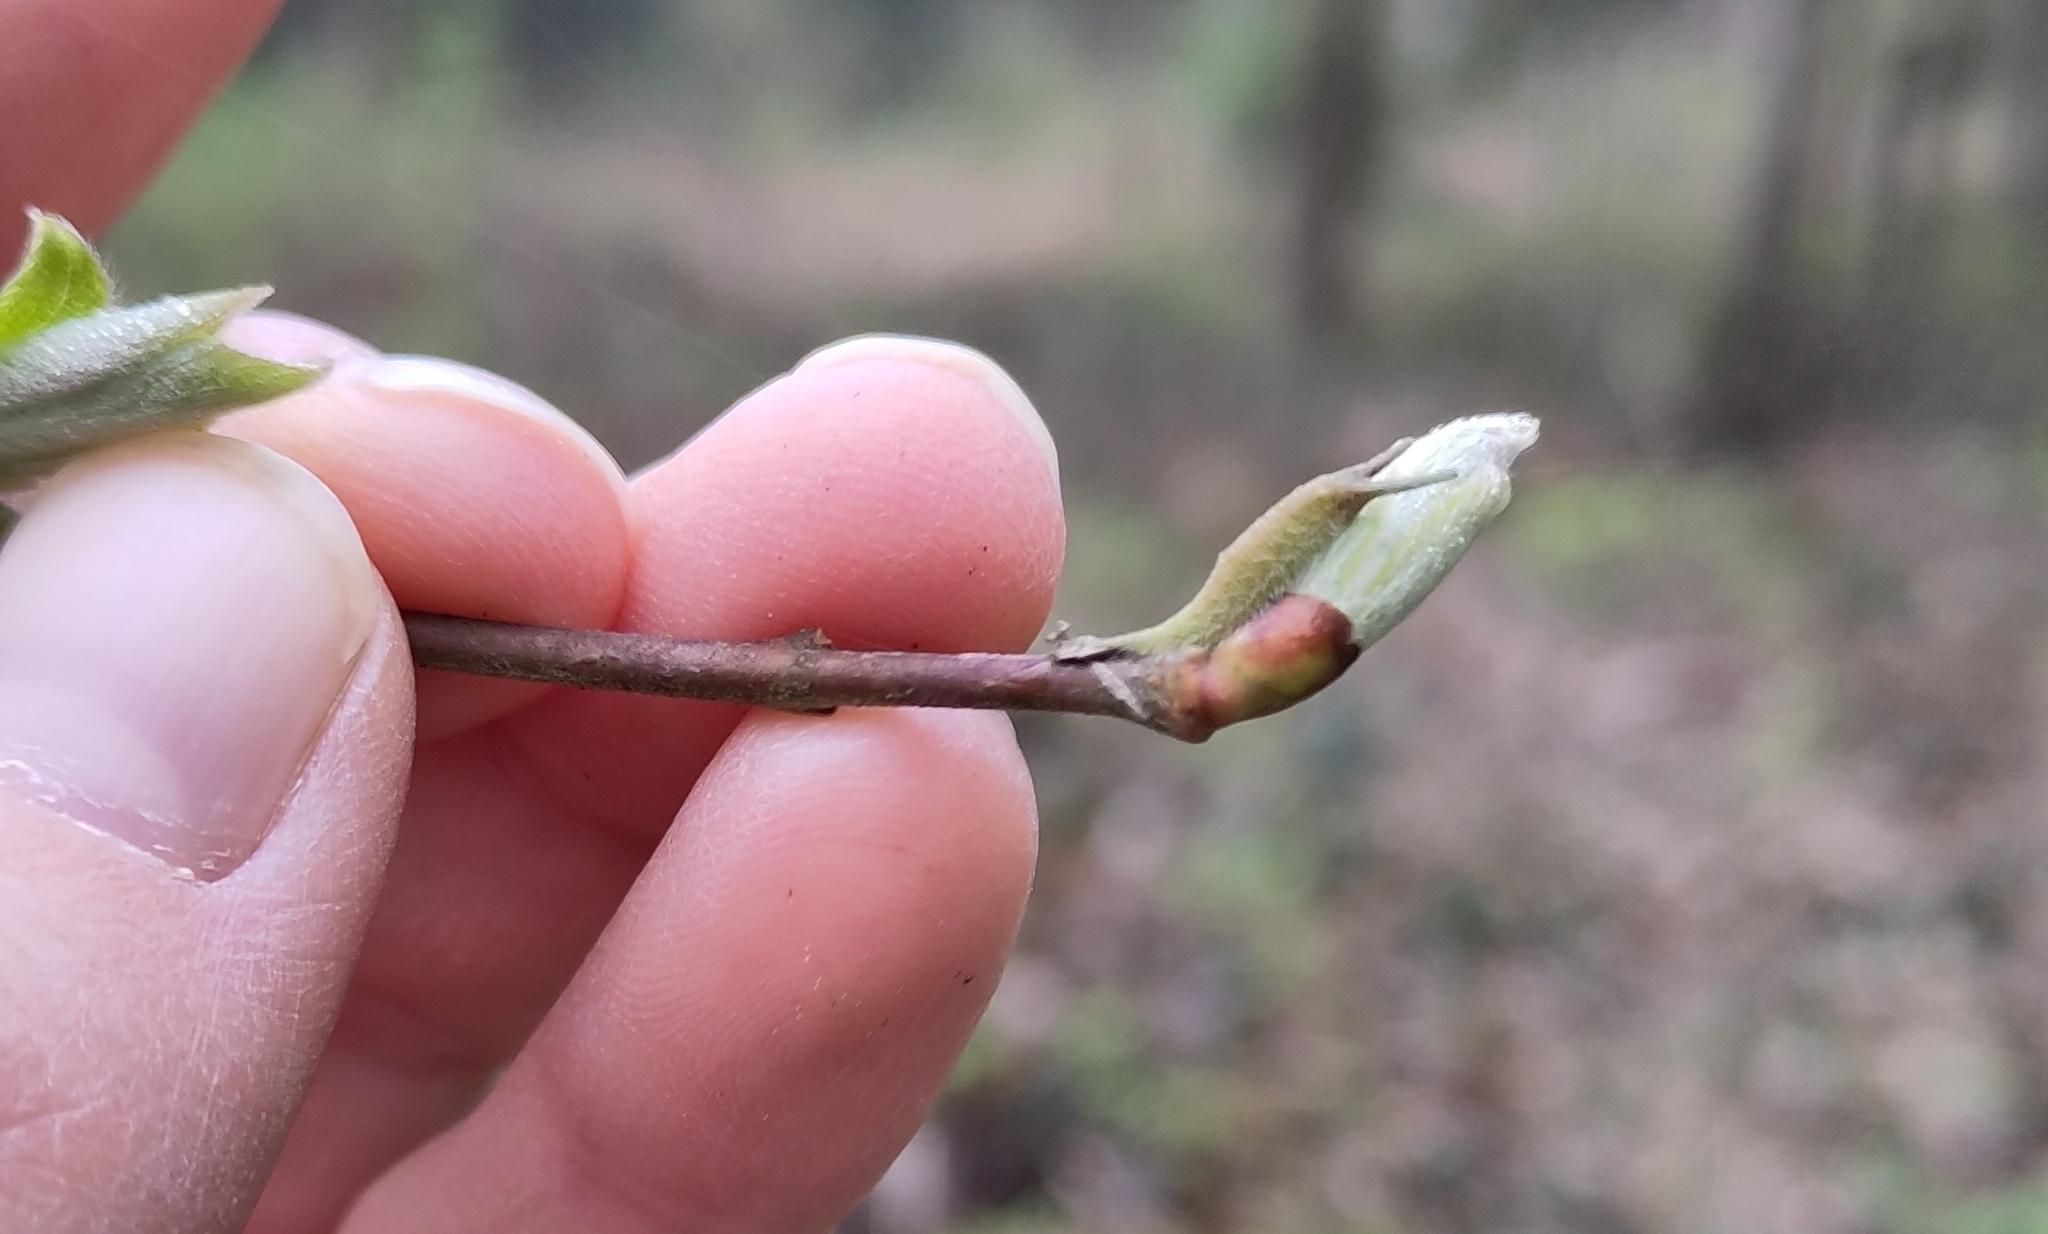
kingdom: Animalia
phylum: Arthropoda
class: Insecta
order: Lepidoptera
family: Nymphalidae
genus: Apatura
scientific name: Apatura iris
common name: Purple emperor
